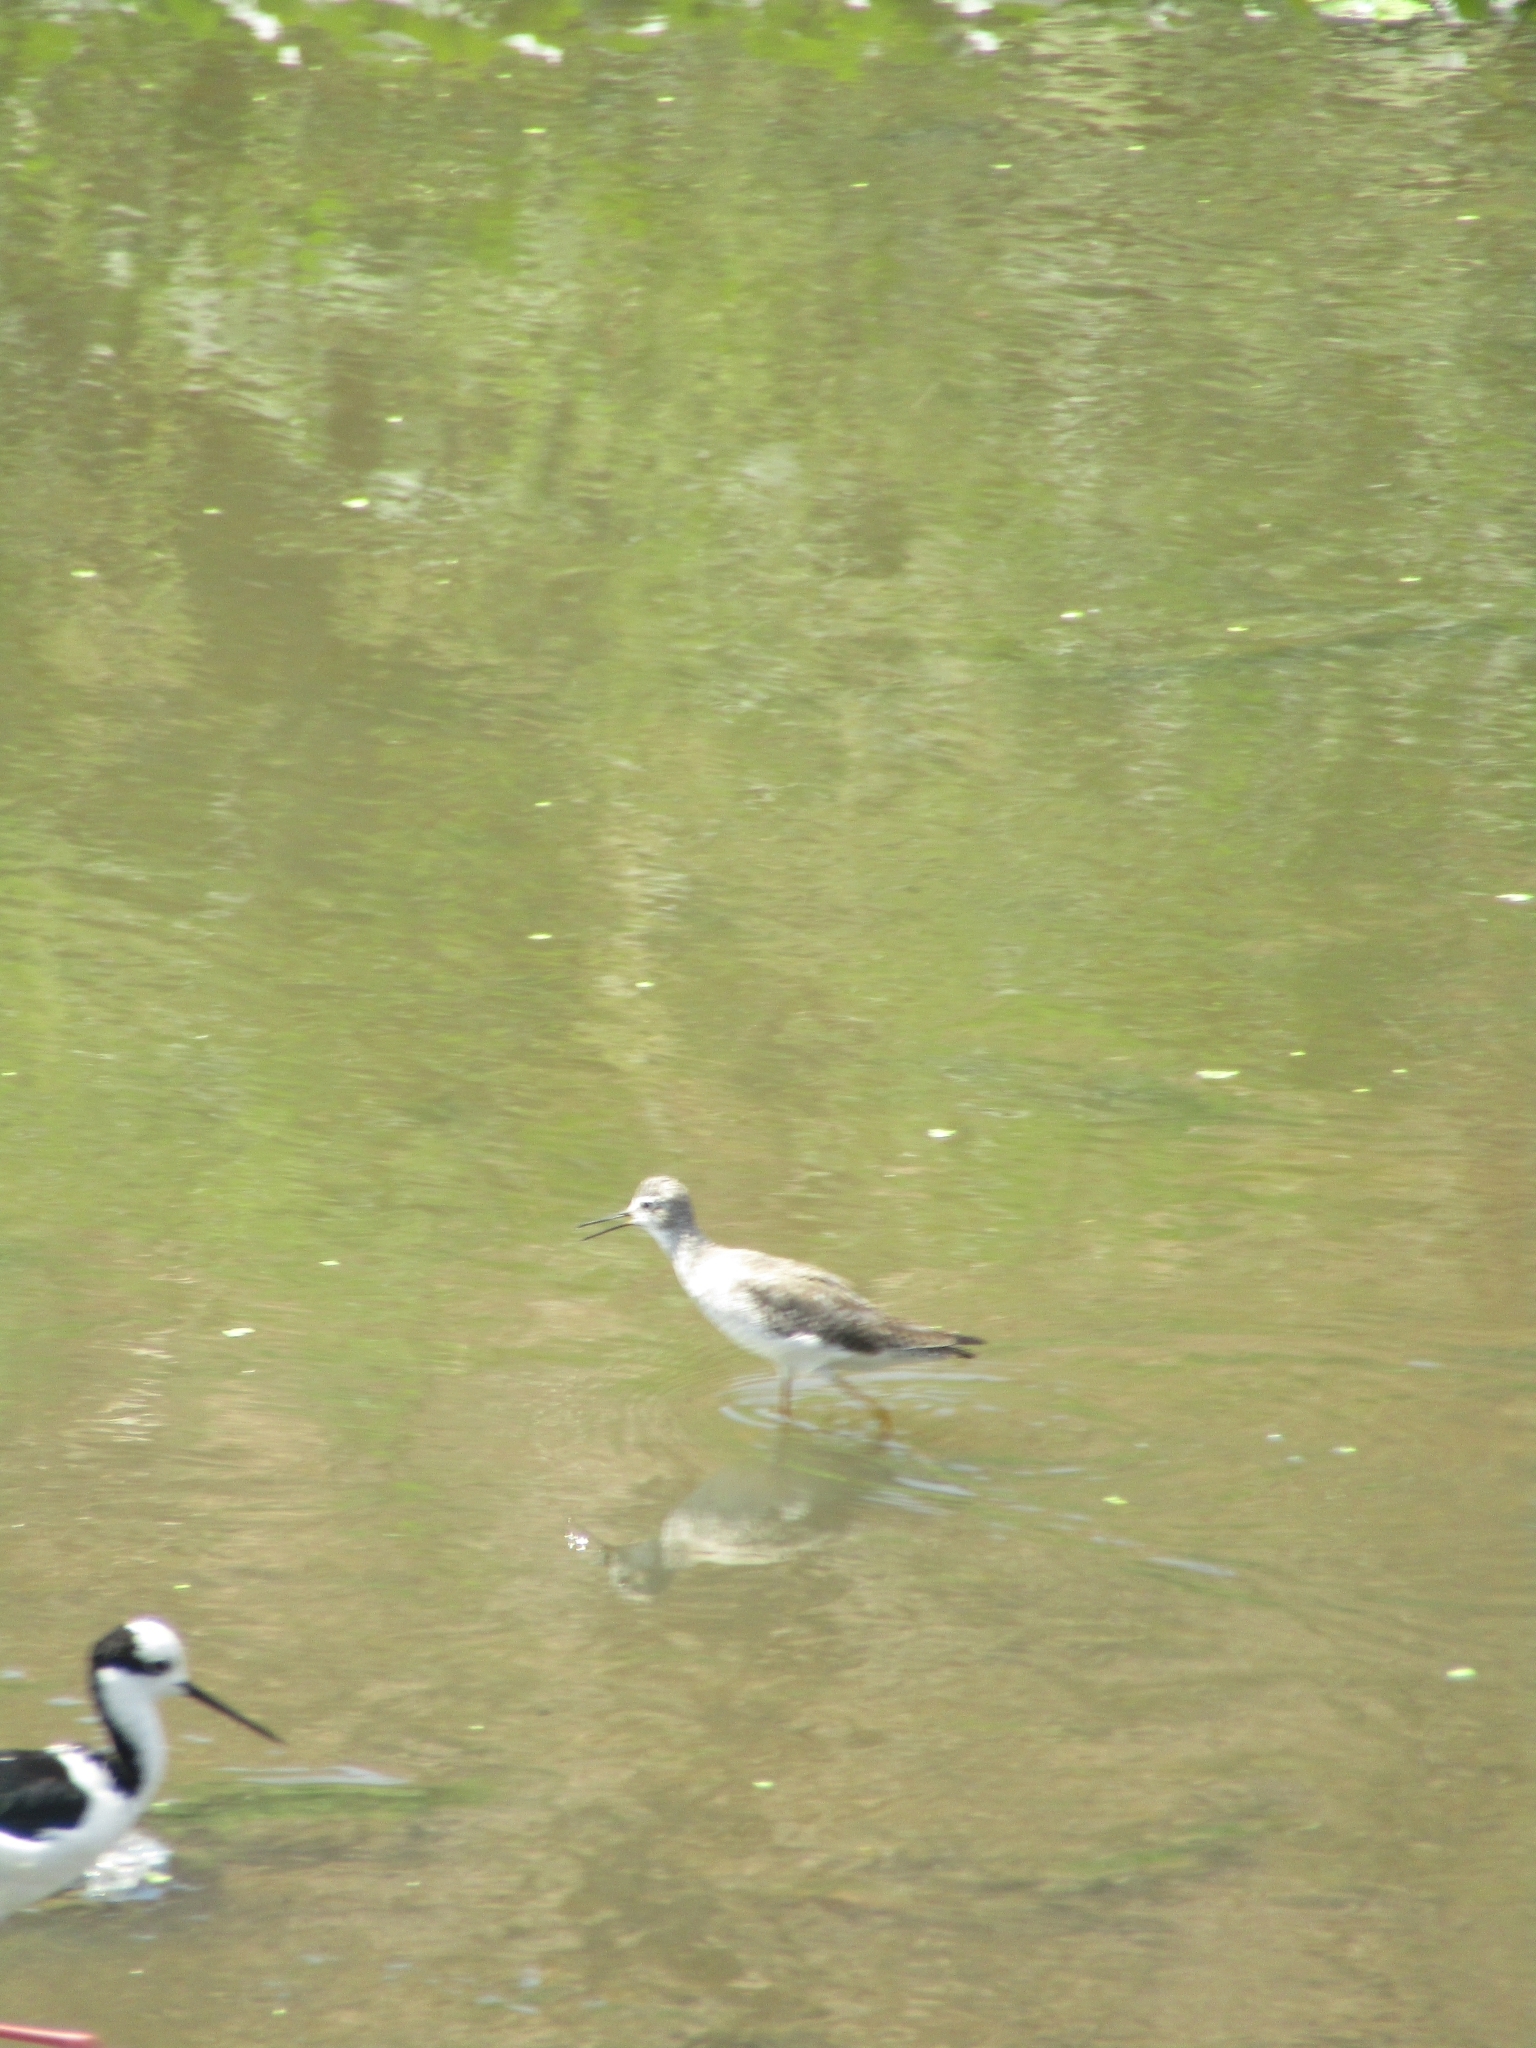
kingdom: Animalia
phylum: Chordata
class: Aves
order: Charadriiformes
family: Scolopacidae
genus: Tringa
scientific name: Tringa flavipes
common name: Lesser yellowlegs
